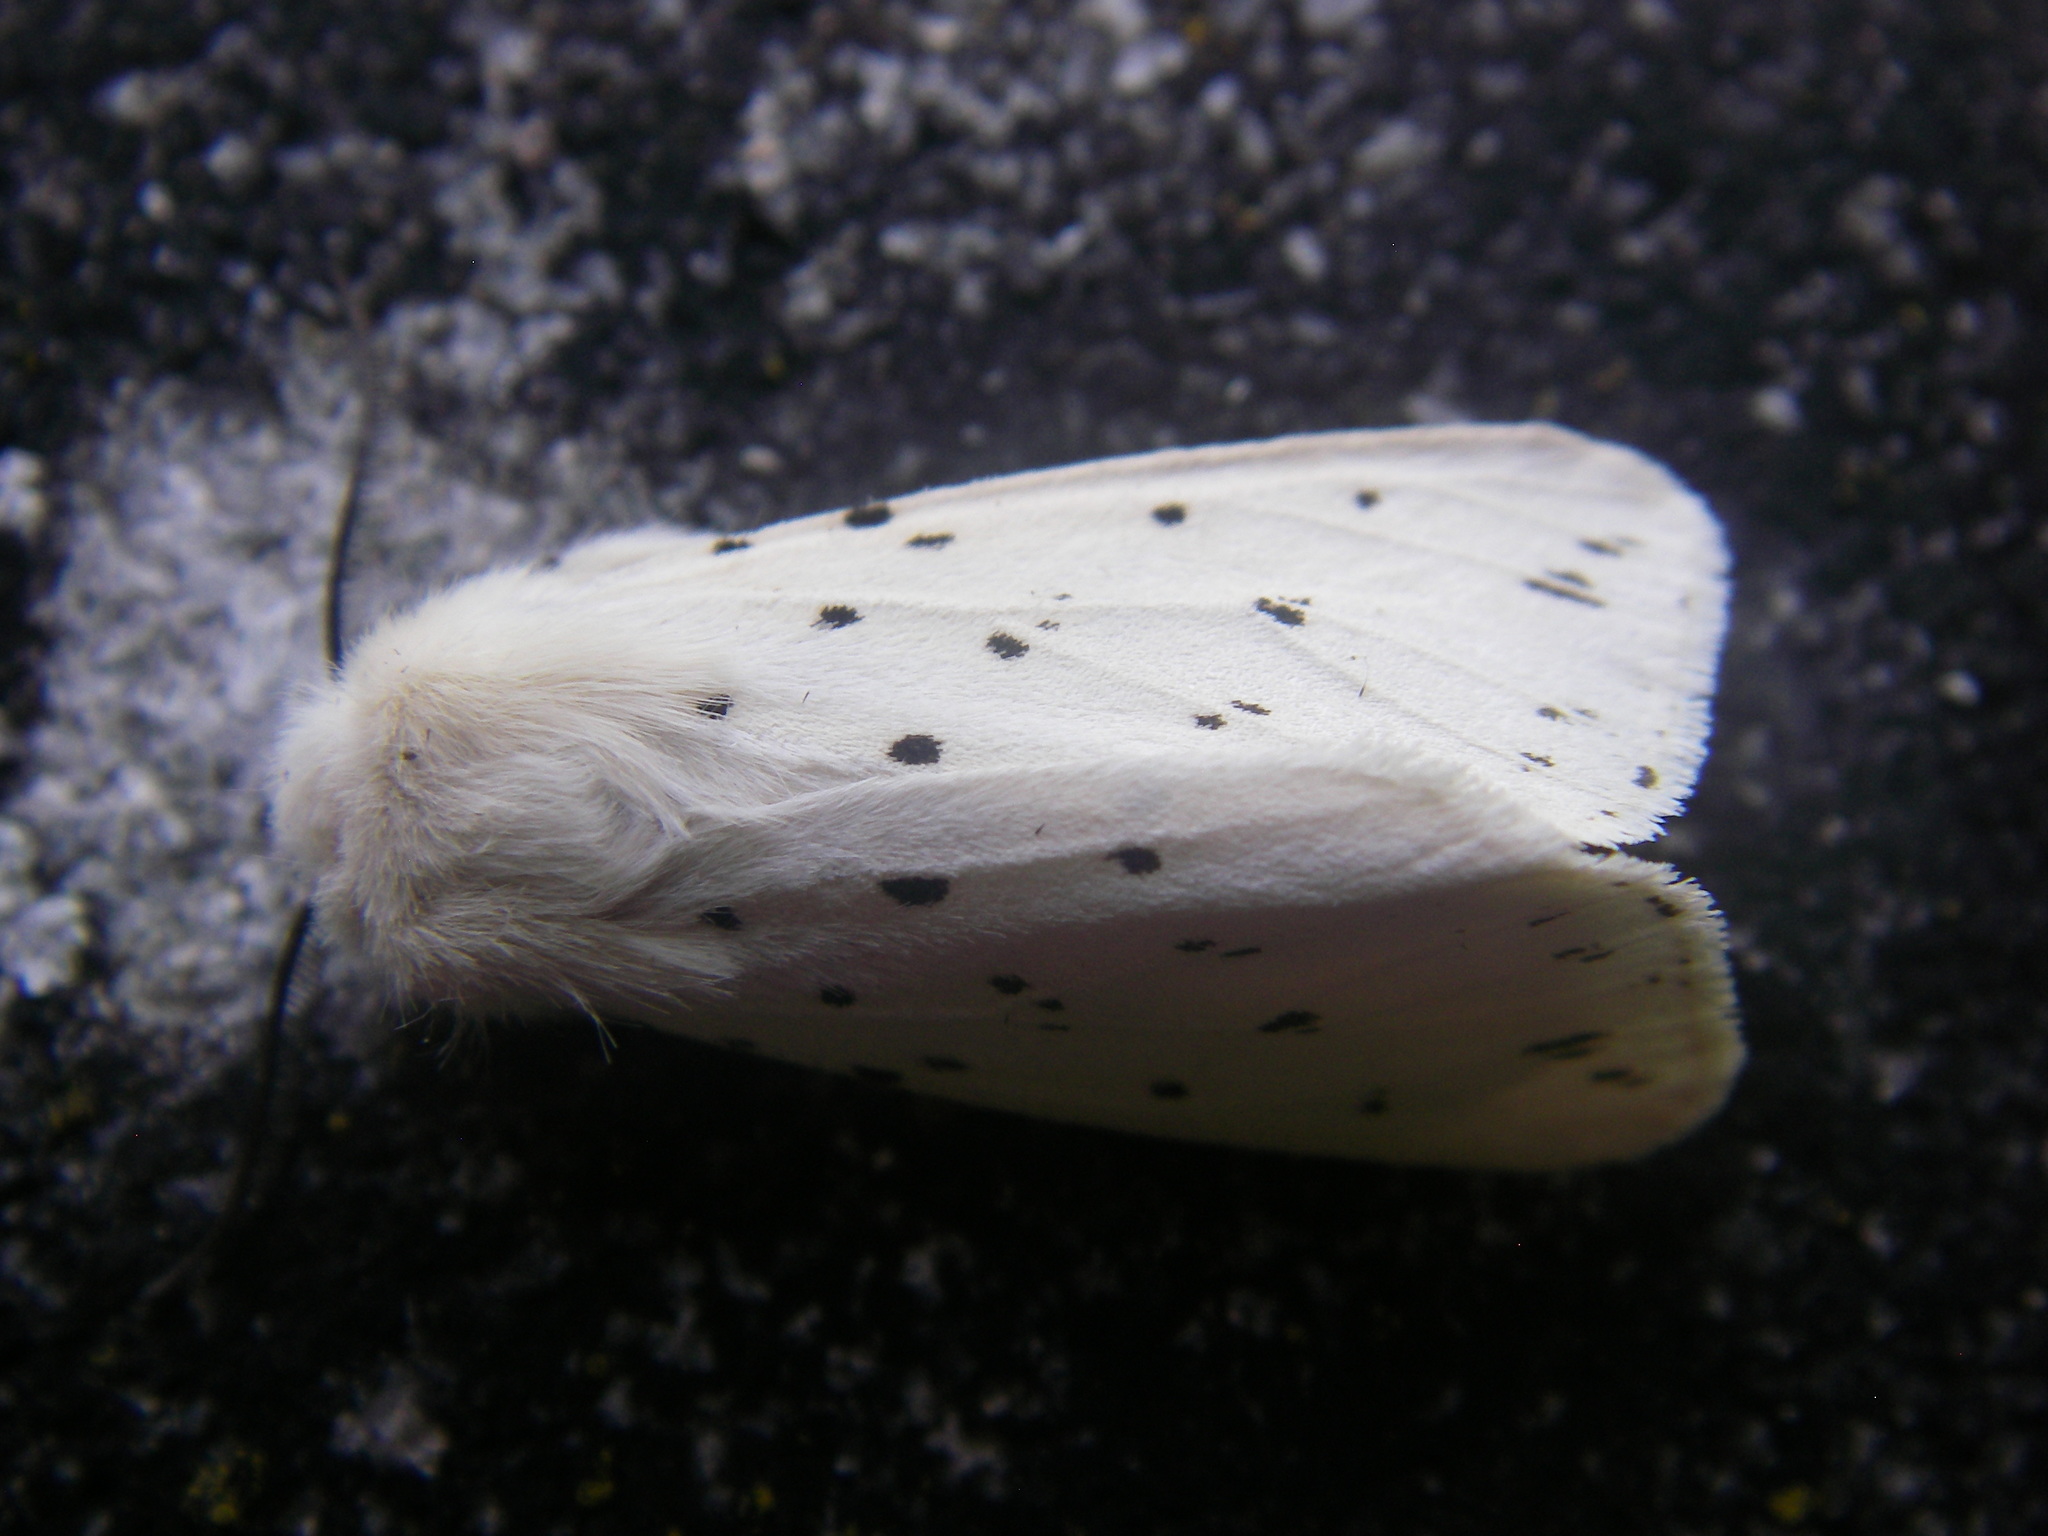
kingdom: Animalia
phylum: Arthropoda
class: Insecta
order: Lepidoptera
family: Erebidae
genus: Spilosoma
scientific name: Spilosoma lubricipeda
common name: White ermine
